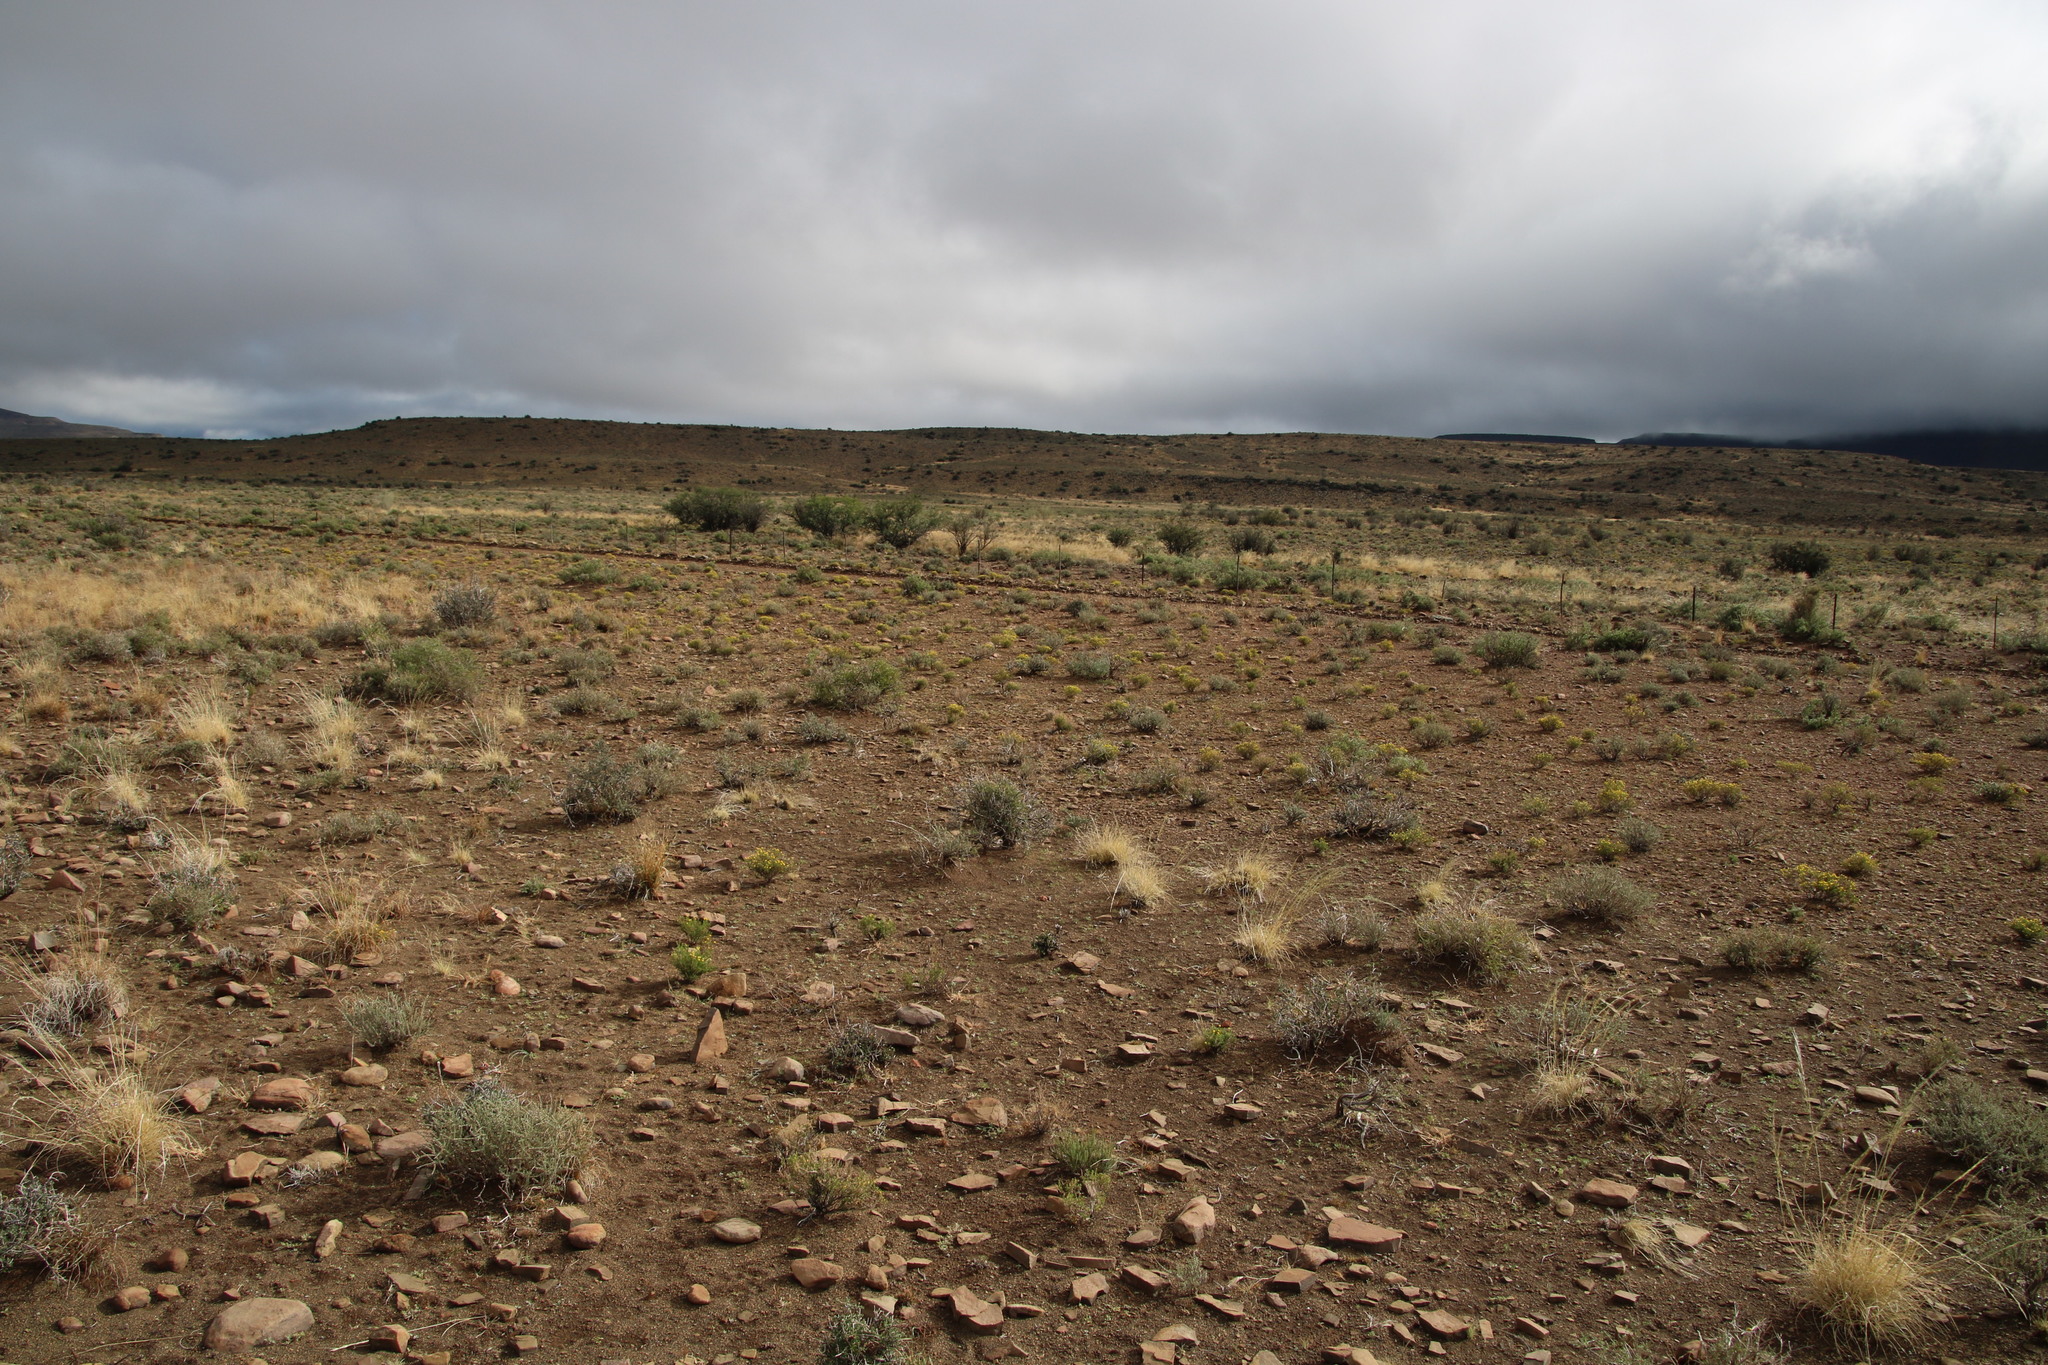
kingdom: Plantae
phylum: Tracheophyta
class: Magnoliopsida
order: Asterales
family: Asteraceae
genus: Chrysocoma
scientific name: Chrysocoma ciliata
